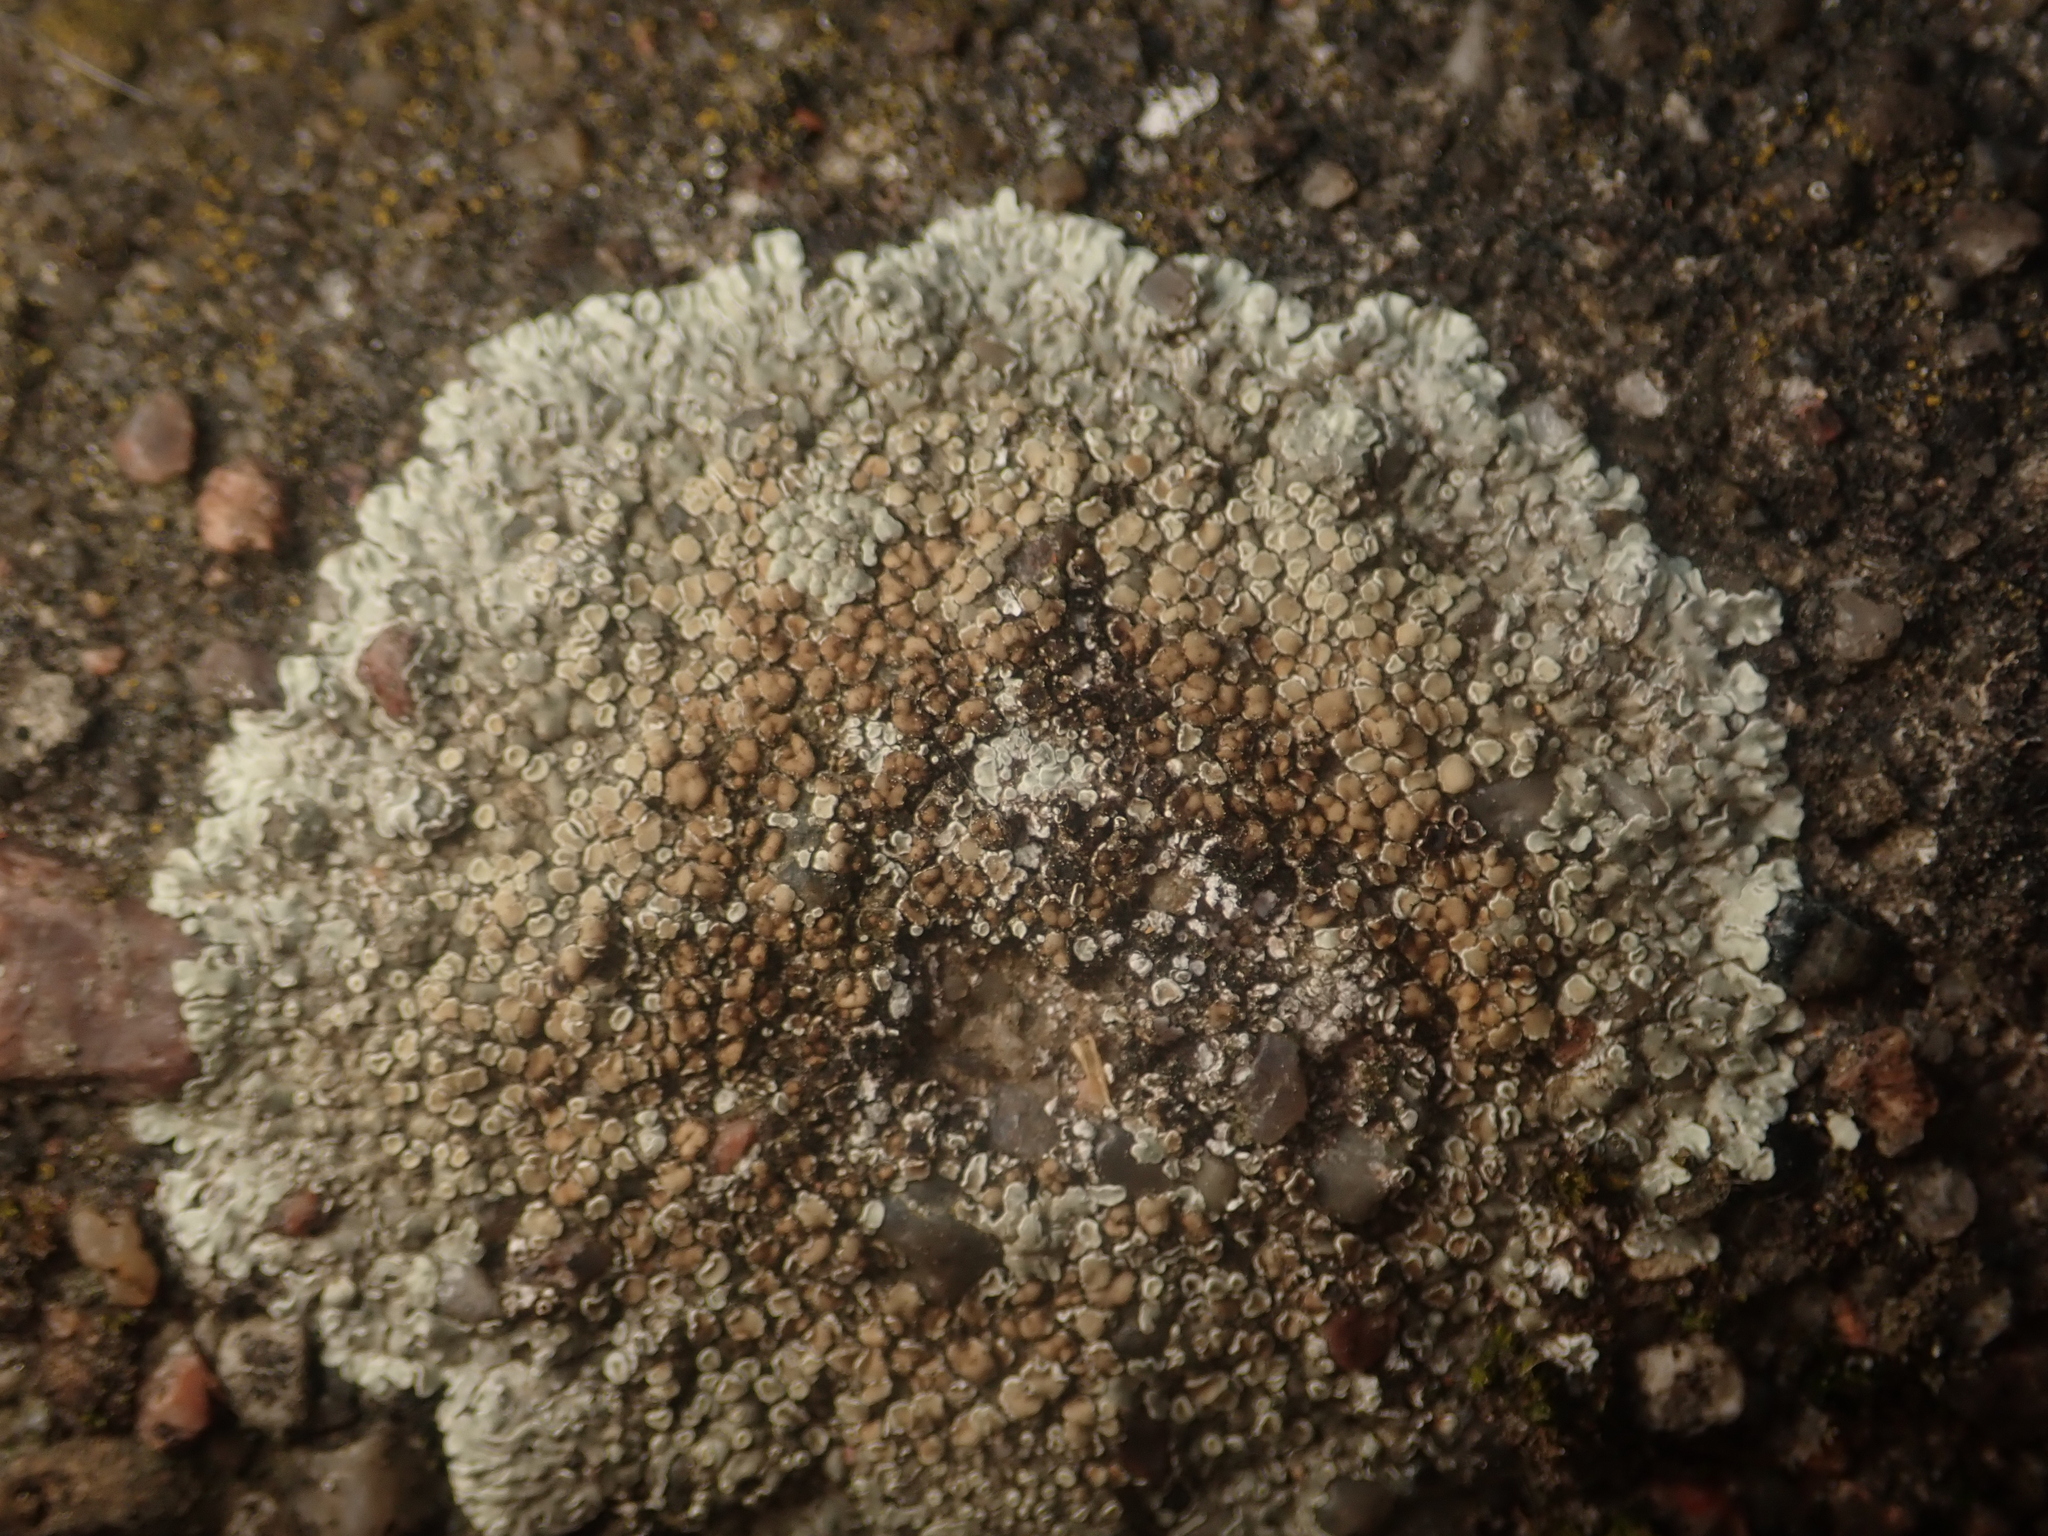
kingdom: Fungi
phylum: Ascomycota
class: Lecanoromycetes
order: Lecanorales
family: Lecanoraceae
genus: Protoparmeliopsis
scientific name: Protoparmeliopsis muralis
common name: Stonewall rim lichen
